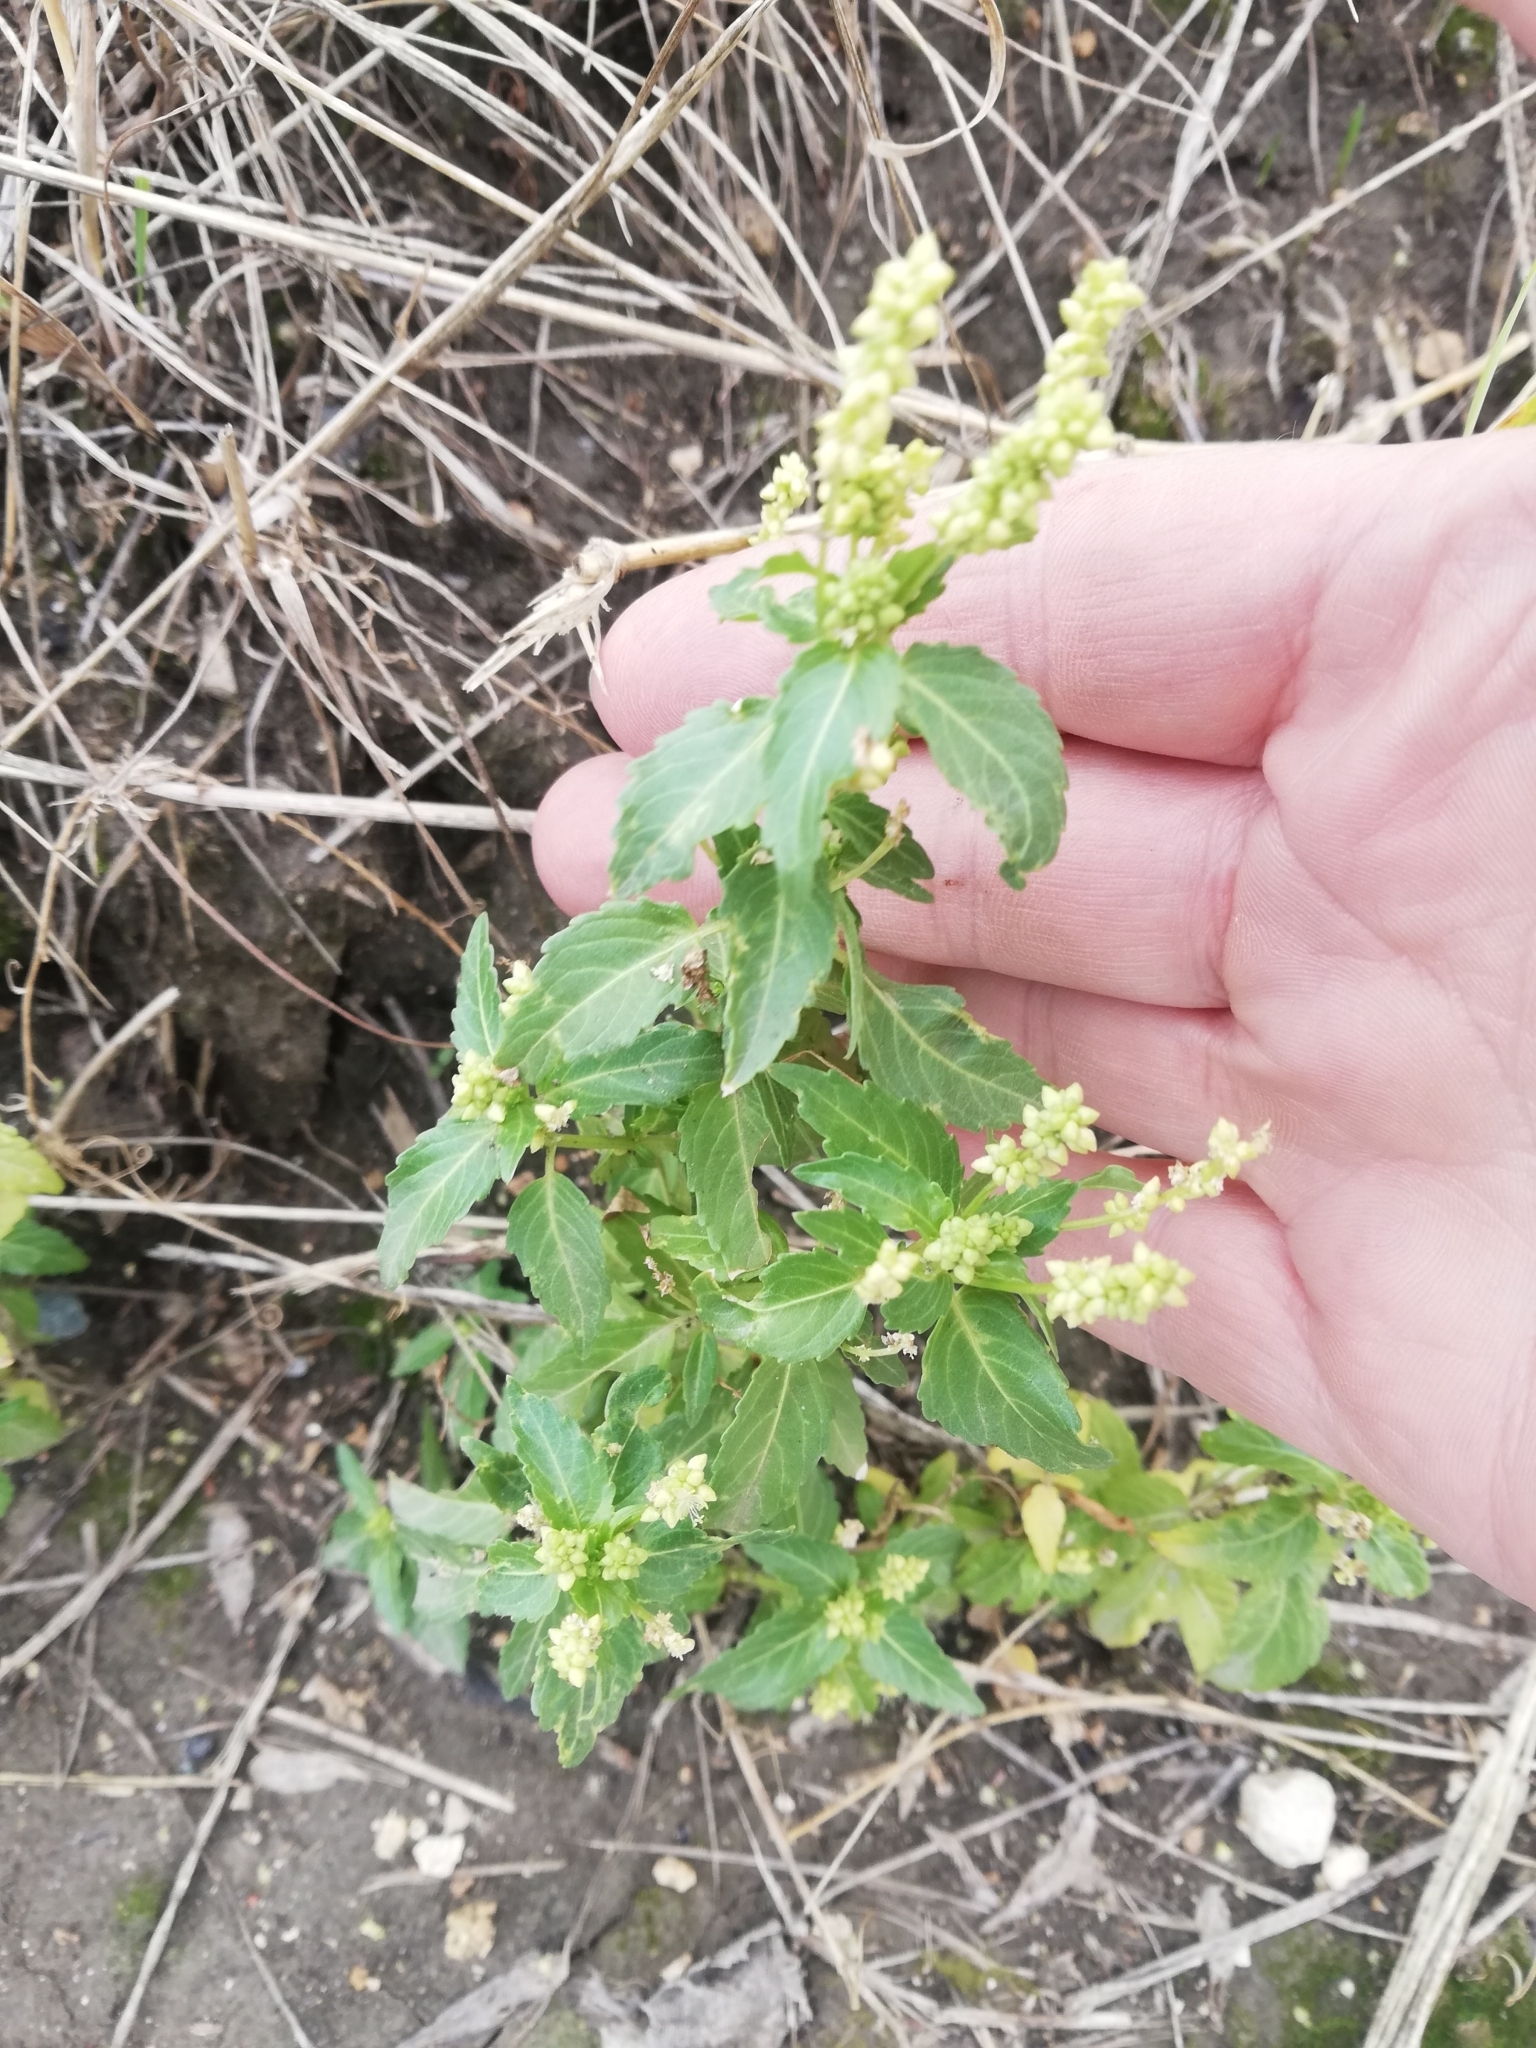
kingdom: Plantae
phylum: Tracheophyta
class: Magnoliopsida
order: Malpighiales
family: Euphorbiaceae
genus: Mercurialis
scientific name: Mercurialis annua
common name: Annual mercury
